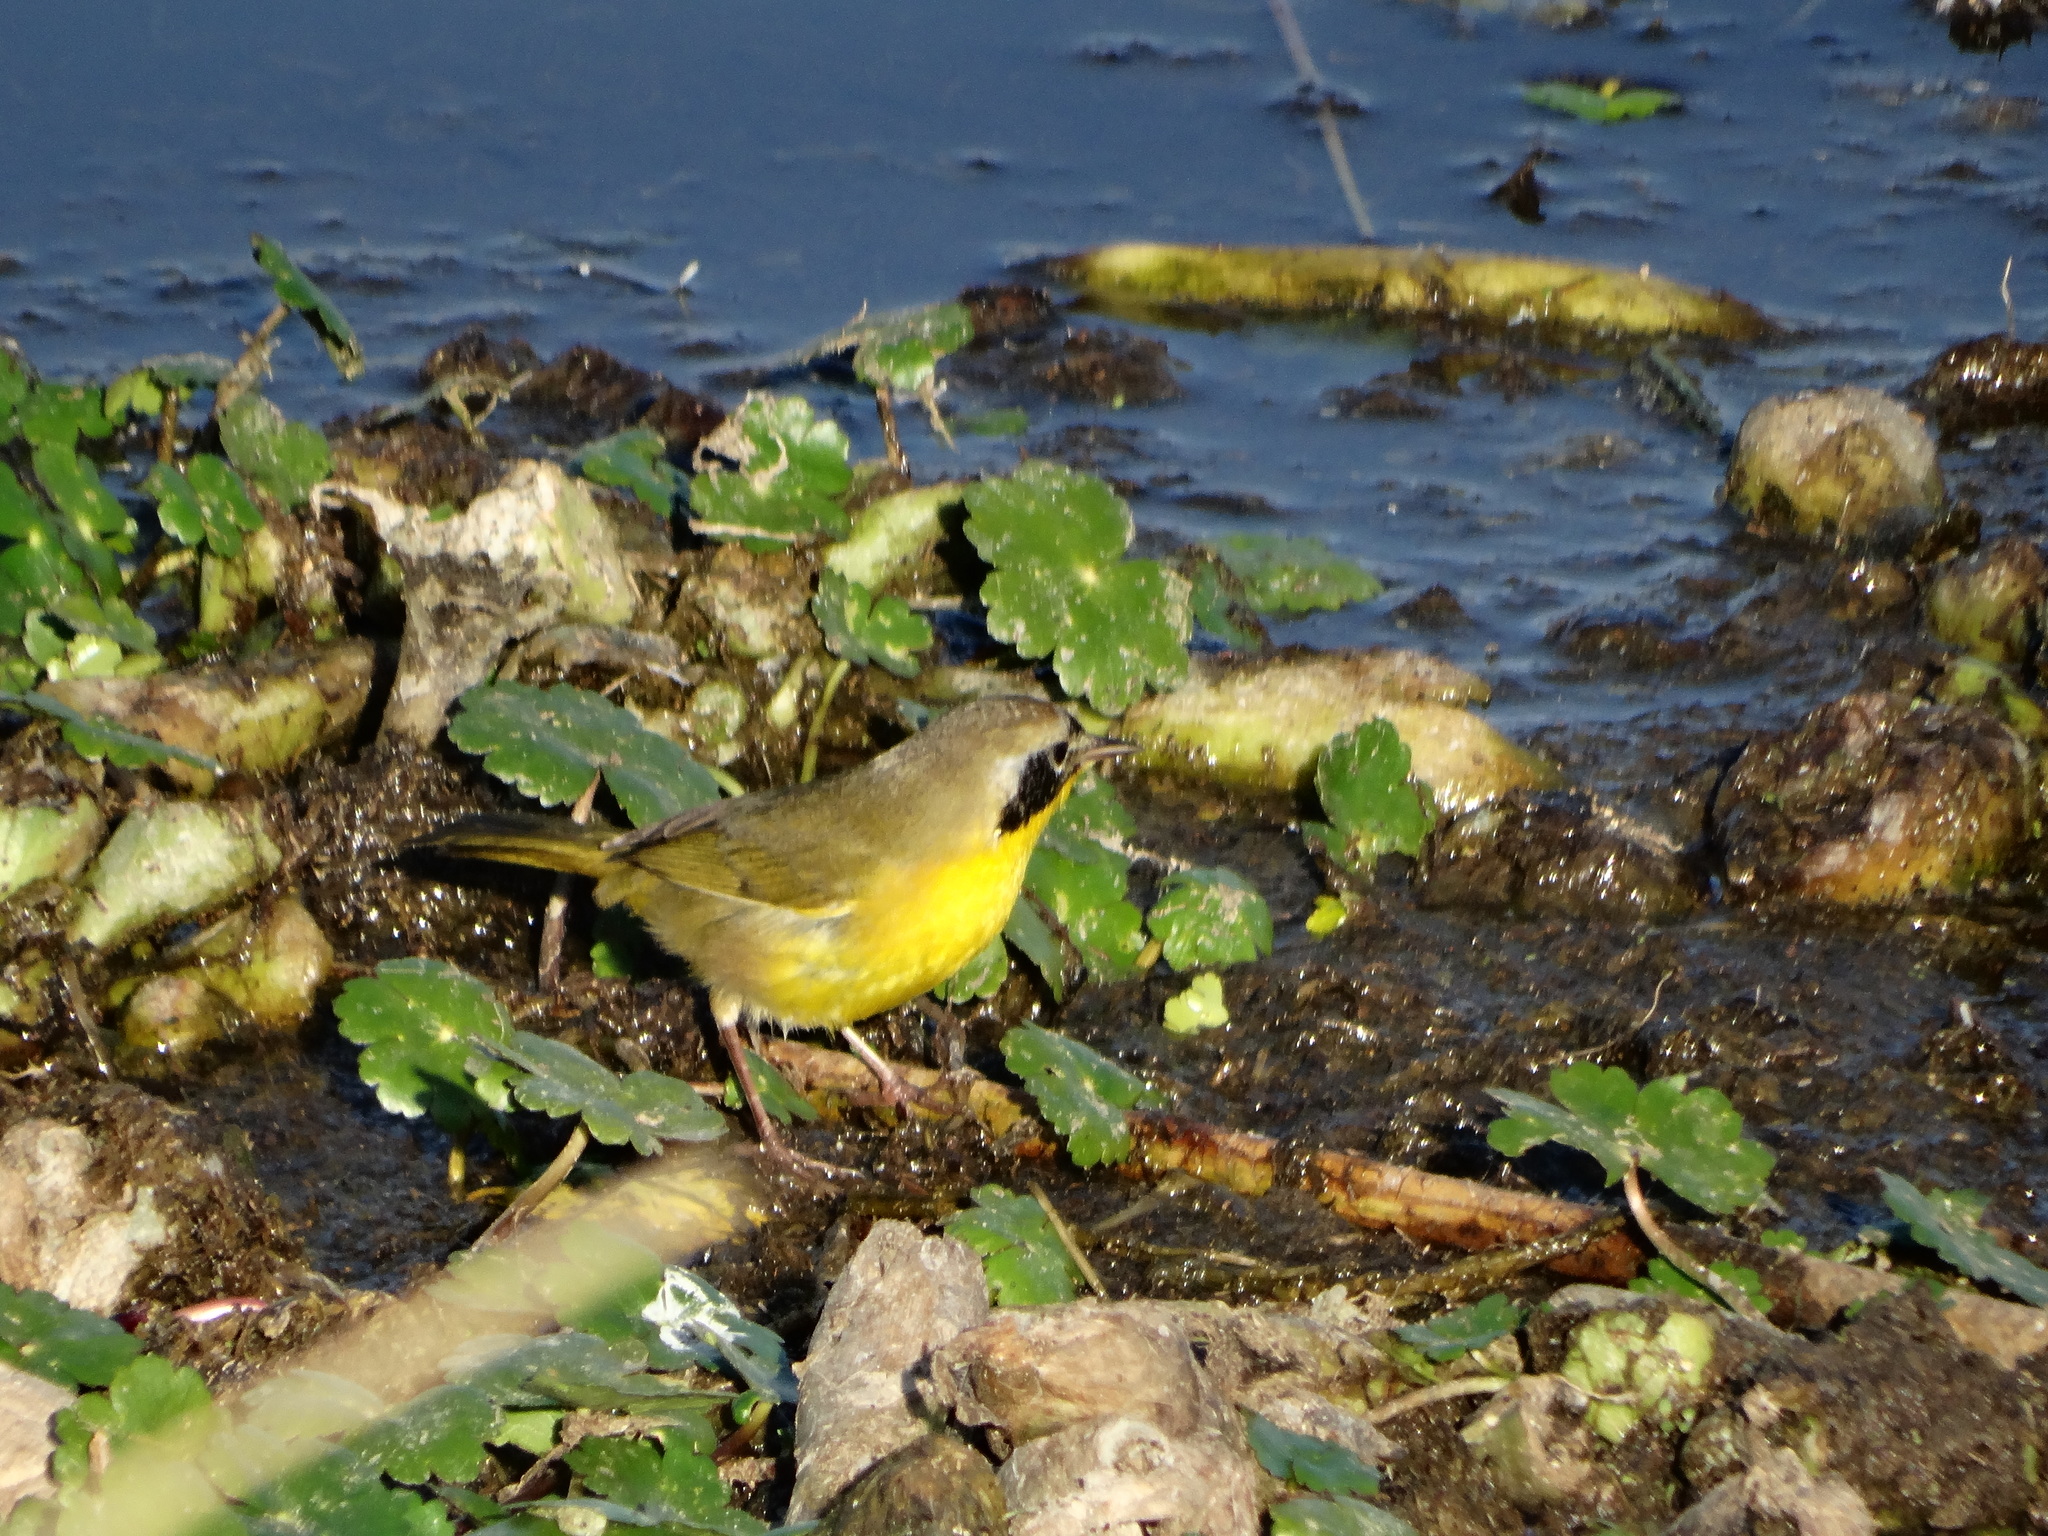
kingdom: Animalia
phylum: Chordata
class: Aves
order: Passeriformes
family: Parulidae
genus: Geothlypis
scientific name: Geothlypis trichas
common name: Common yellowthroat
